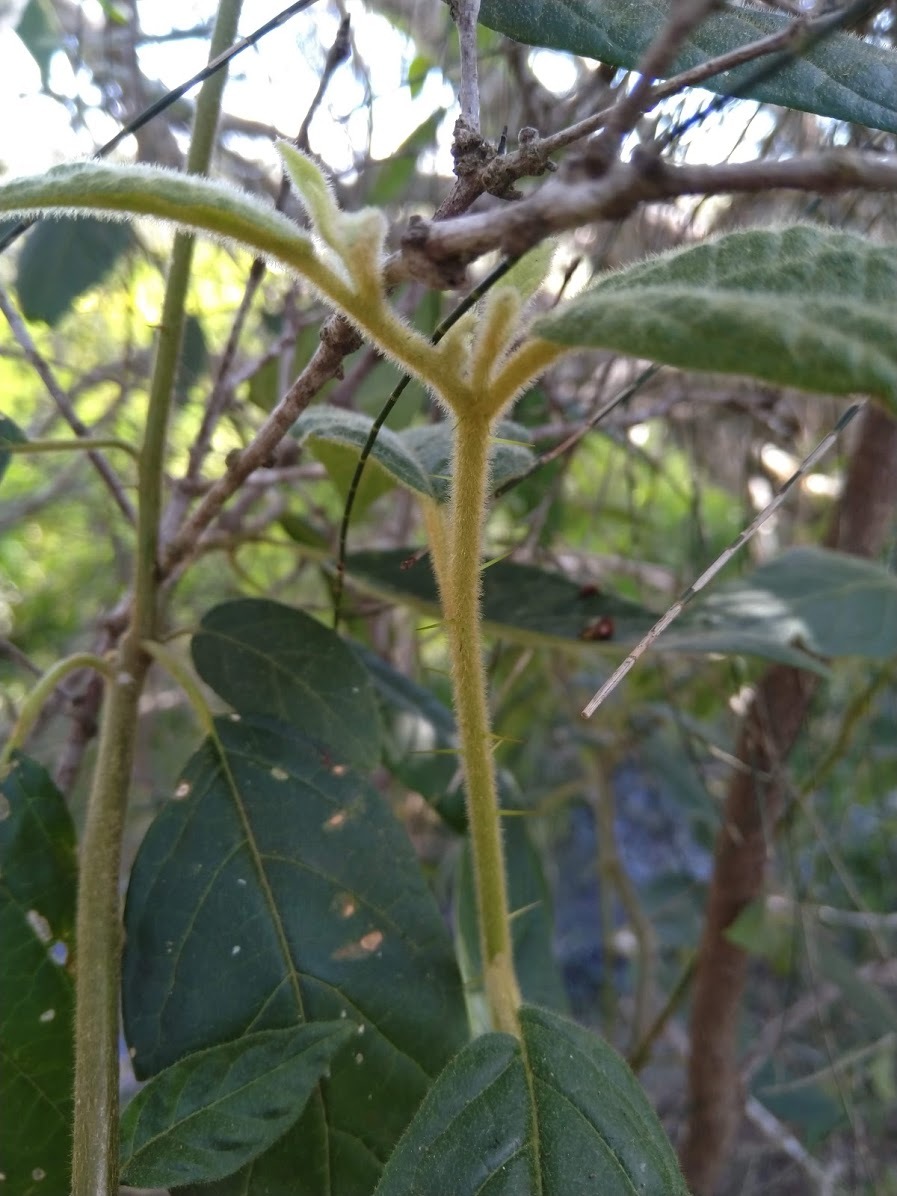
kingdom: Plantae
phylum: Tracheophyta
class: Magnoliopsida
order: Solanales
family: Solanaceae
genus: Solanum
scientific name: Solanum stelligerum
